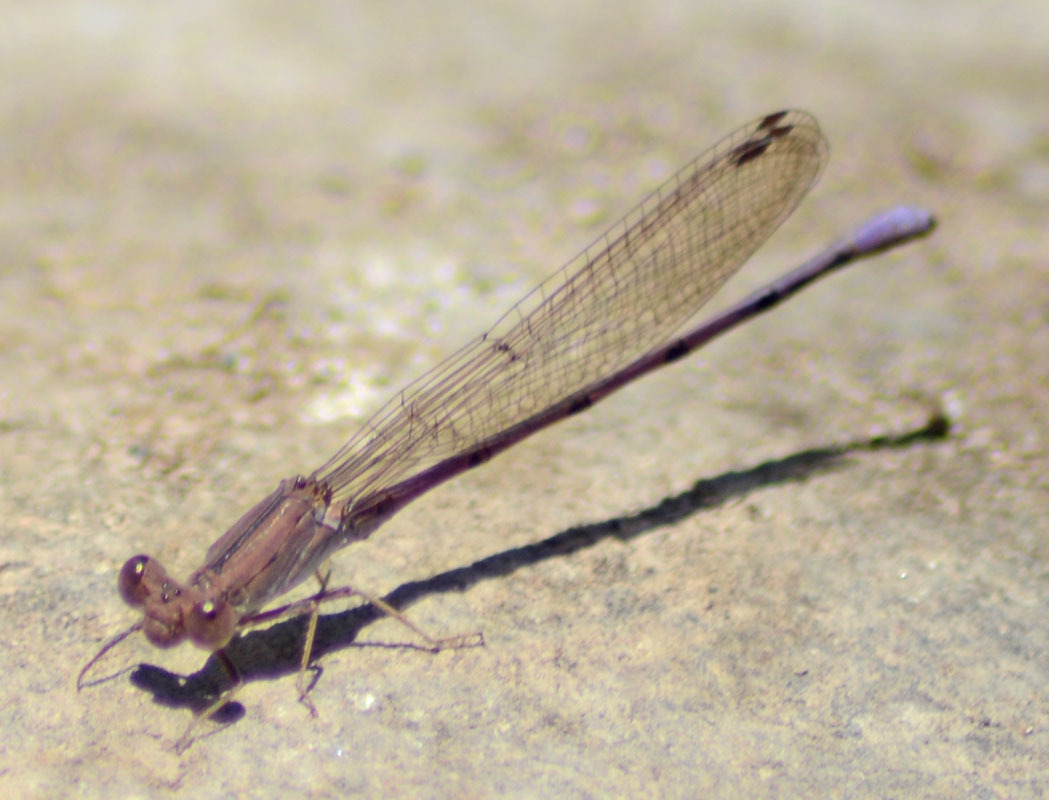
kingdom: Animalia
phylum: Arthropoda
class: Insecta
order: Odonata
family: Coenagrionidae
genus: Argia
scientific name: Argia pallens
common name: Amethyst dancer
